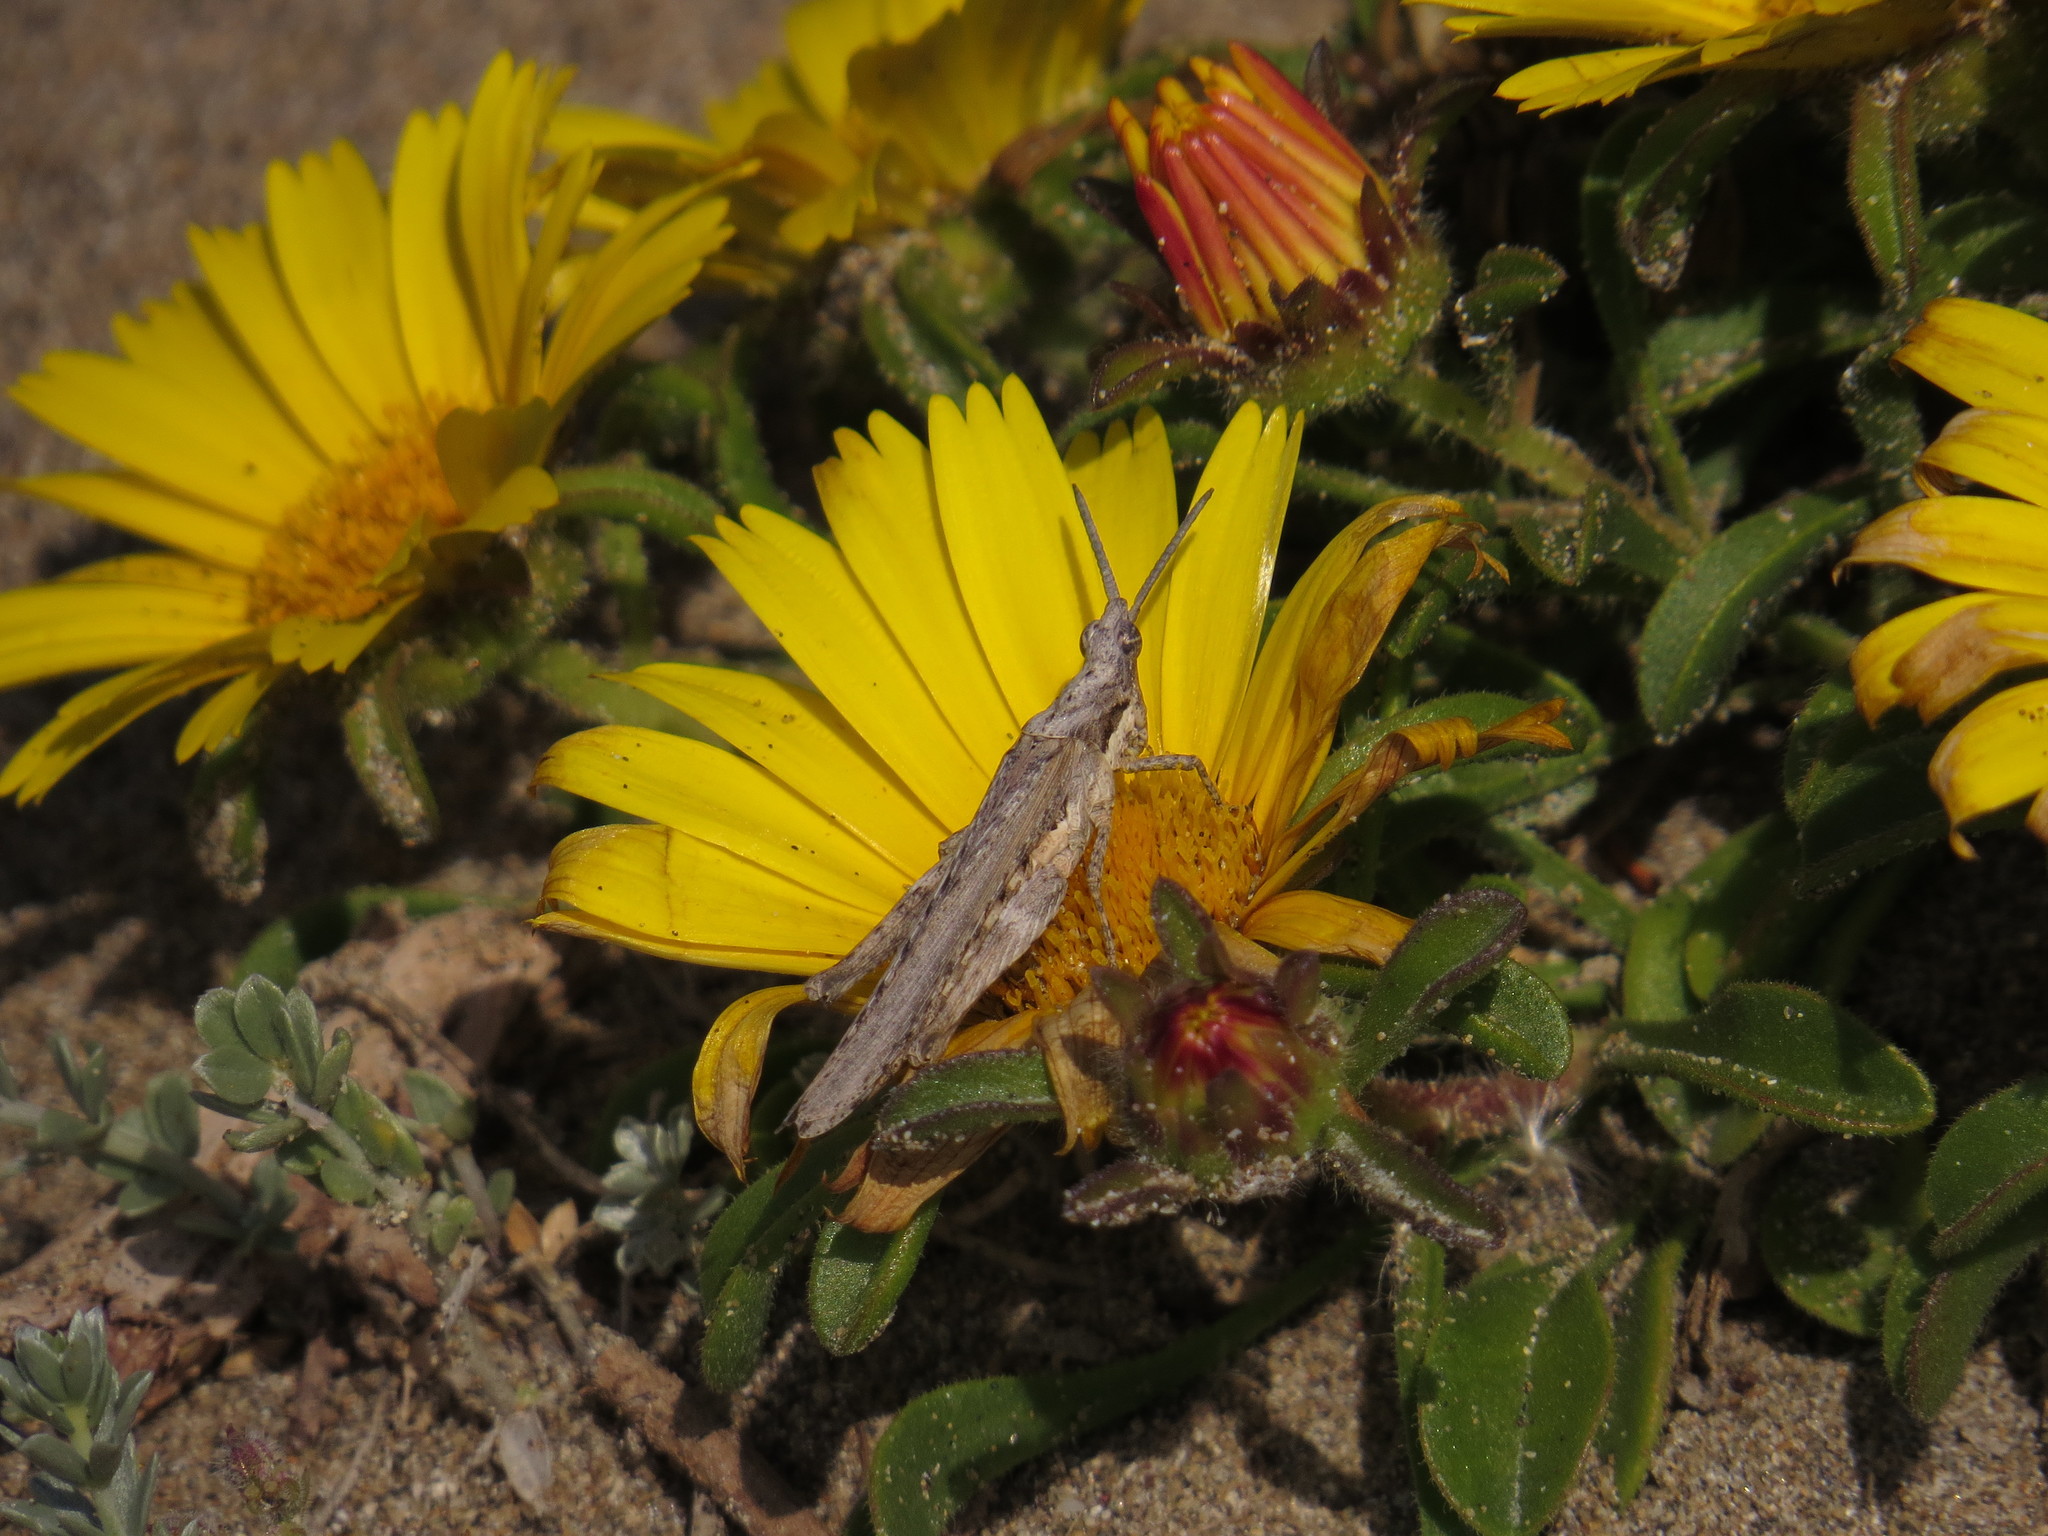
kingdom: Animalia
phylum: Arthropoda
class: Insecta
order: Orthoptera
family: Pyrgomorphidae
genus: Pyrgomorpha
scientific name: Pyrgomorpha conica
